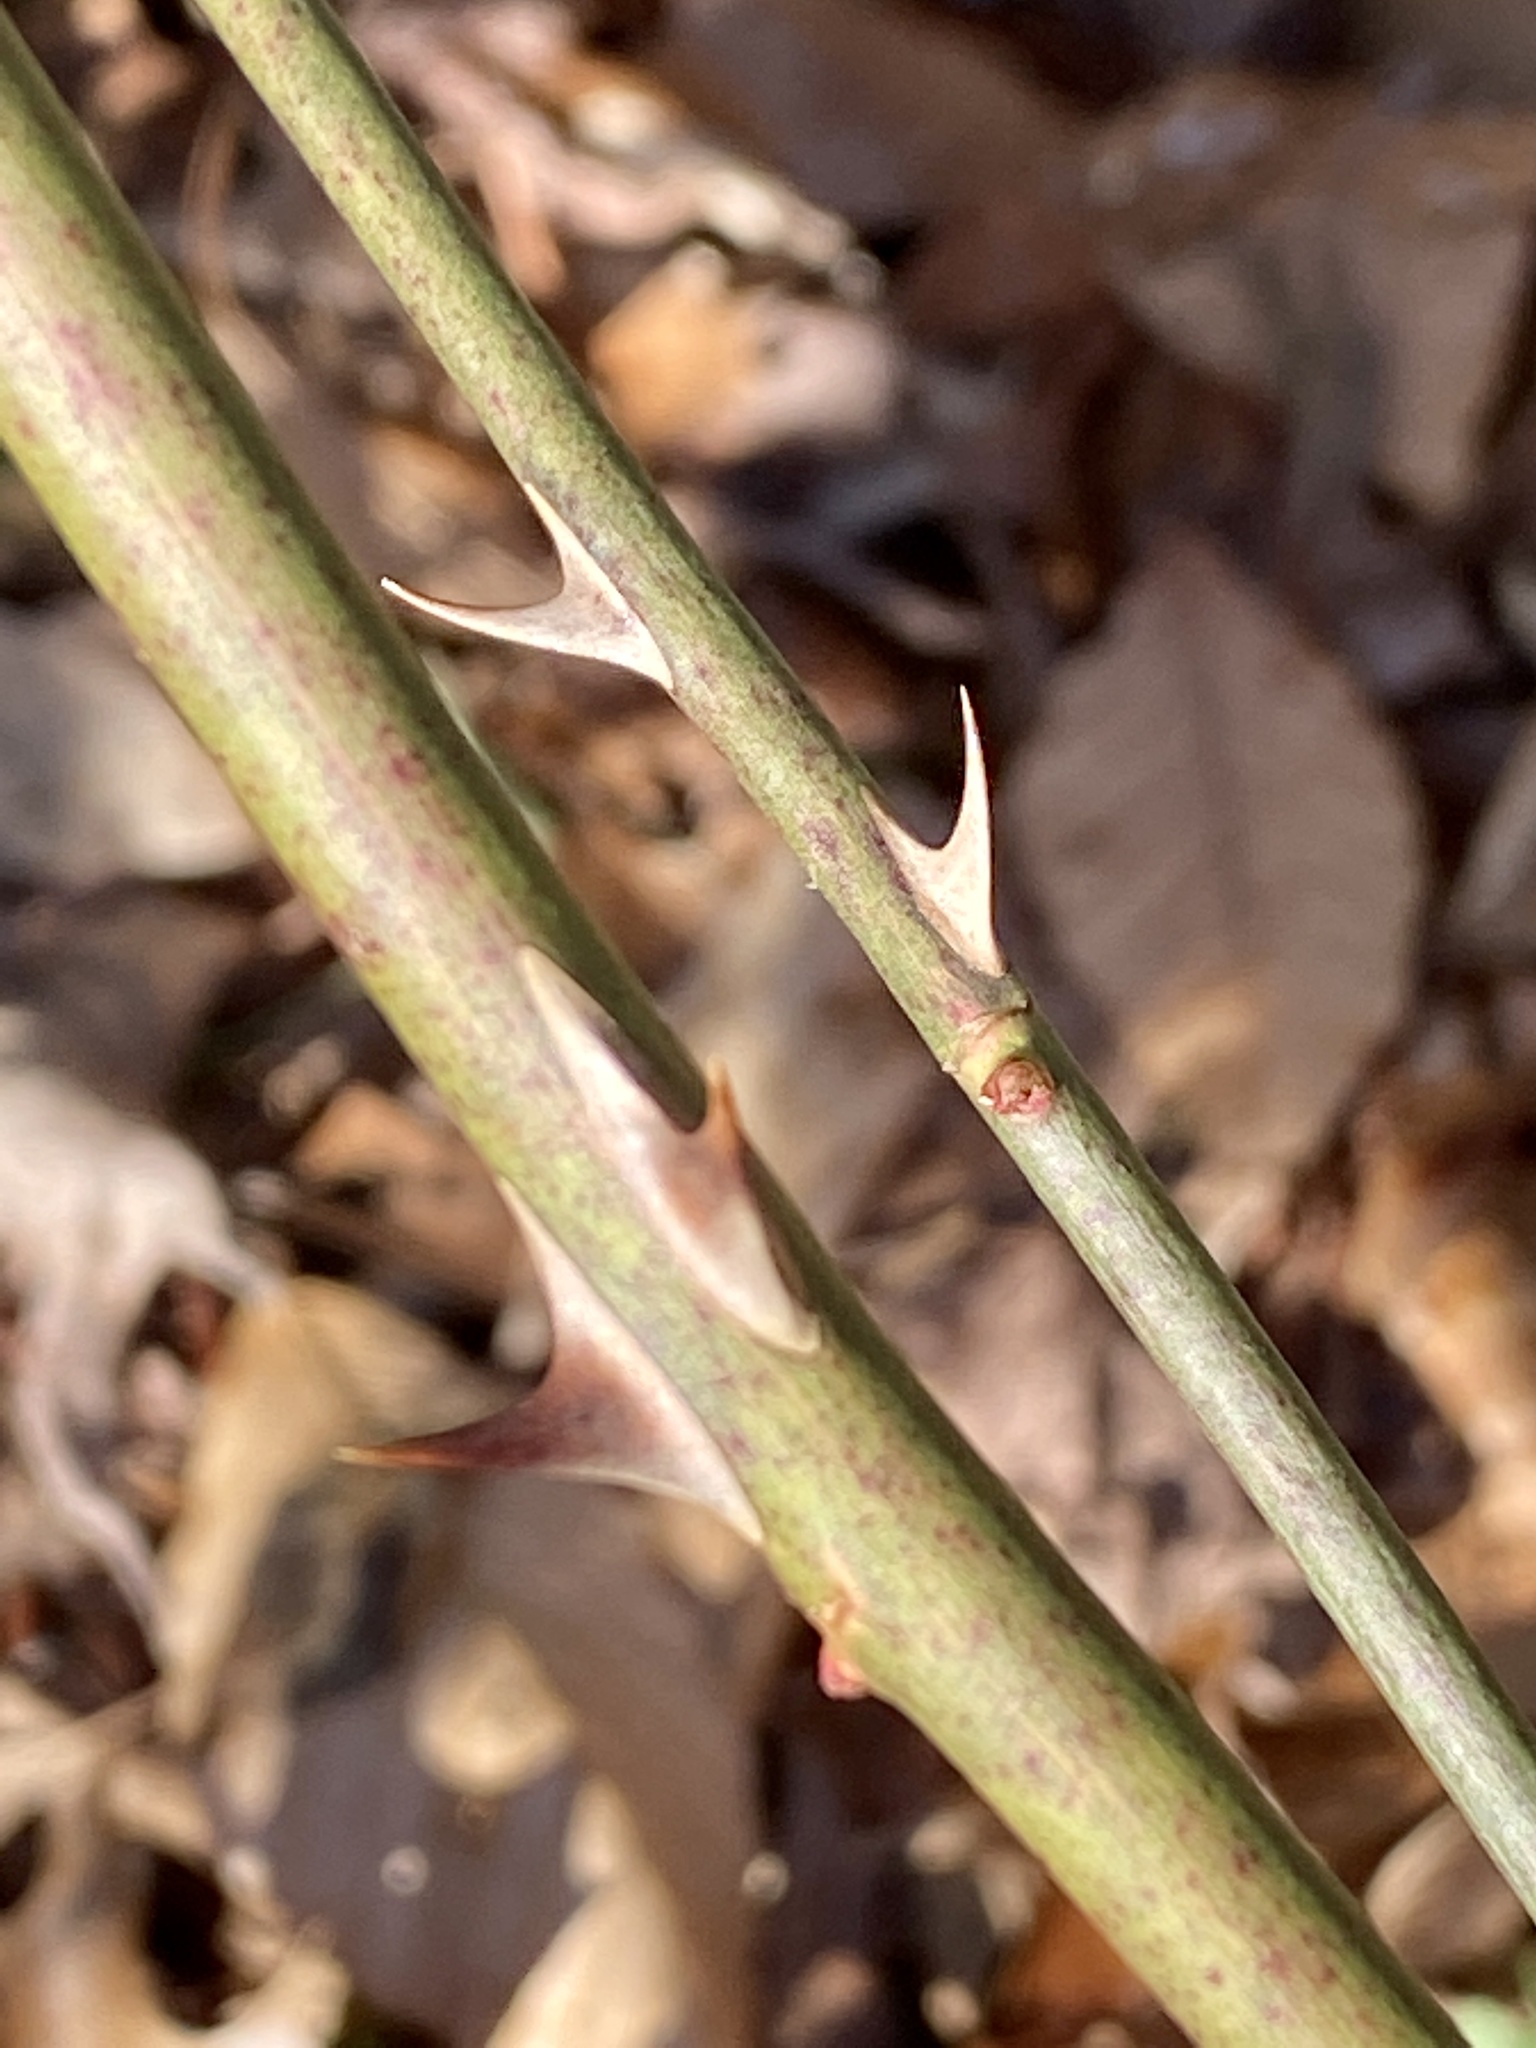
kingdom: Plantae
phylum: Tracheophyta
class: Magnoliopsida
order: Rosales
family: Rosaceae
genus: Rosa
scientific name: Rosa multiflora
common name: Multiflora rose
